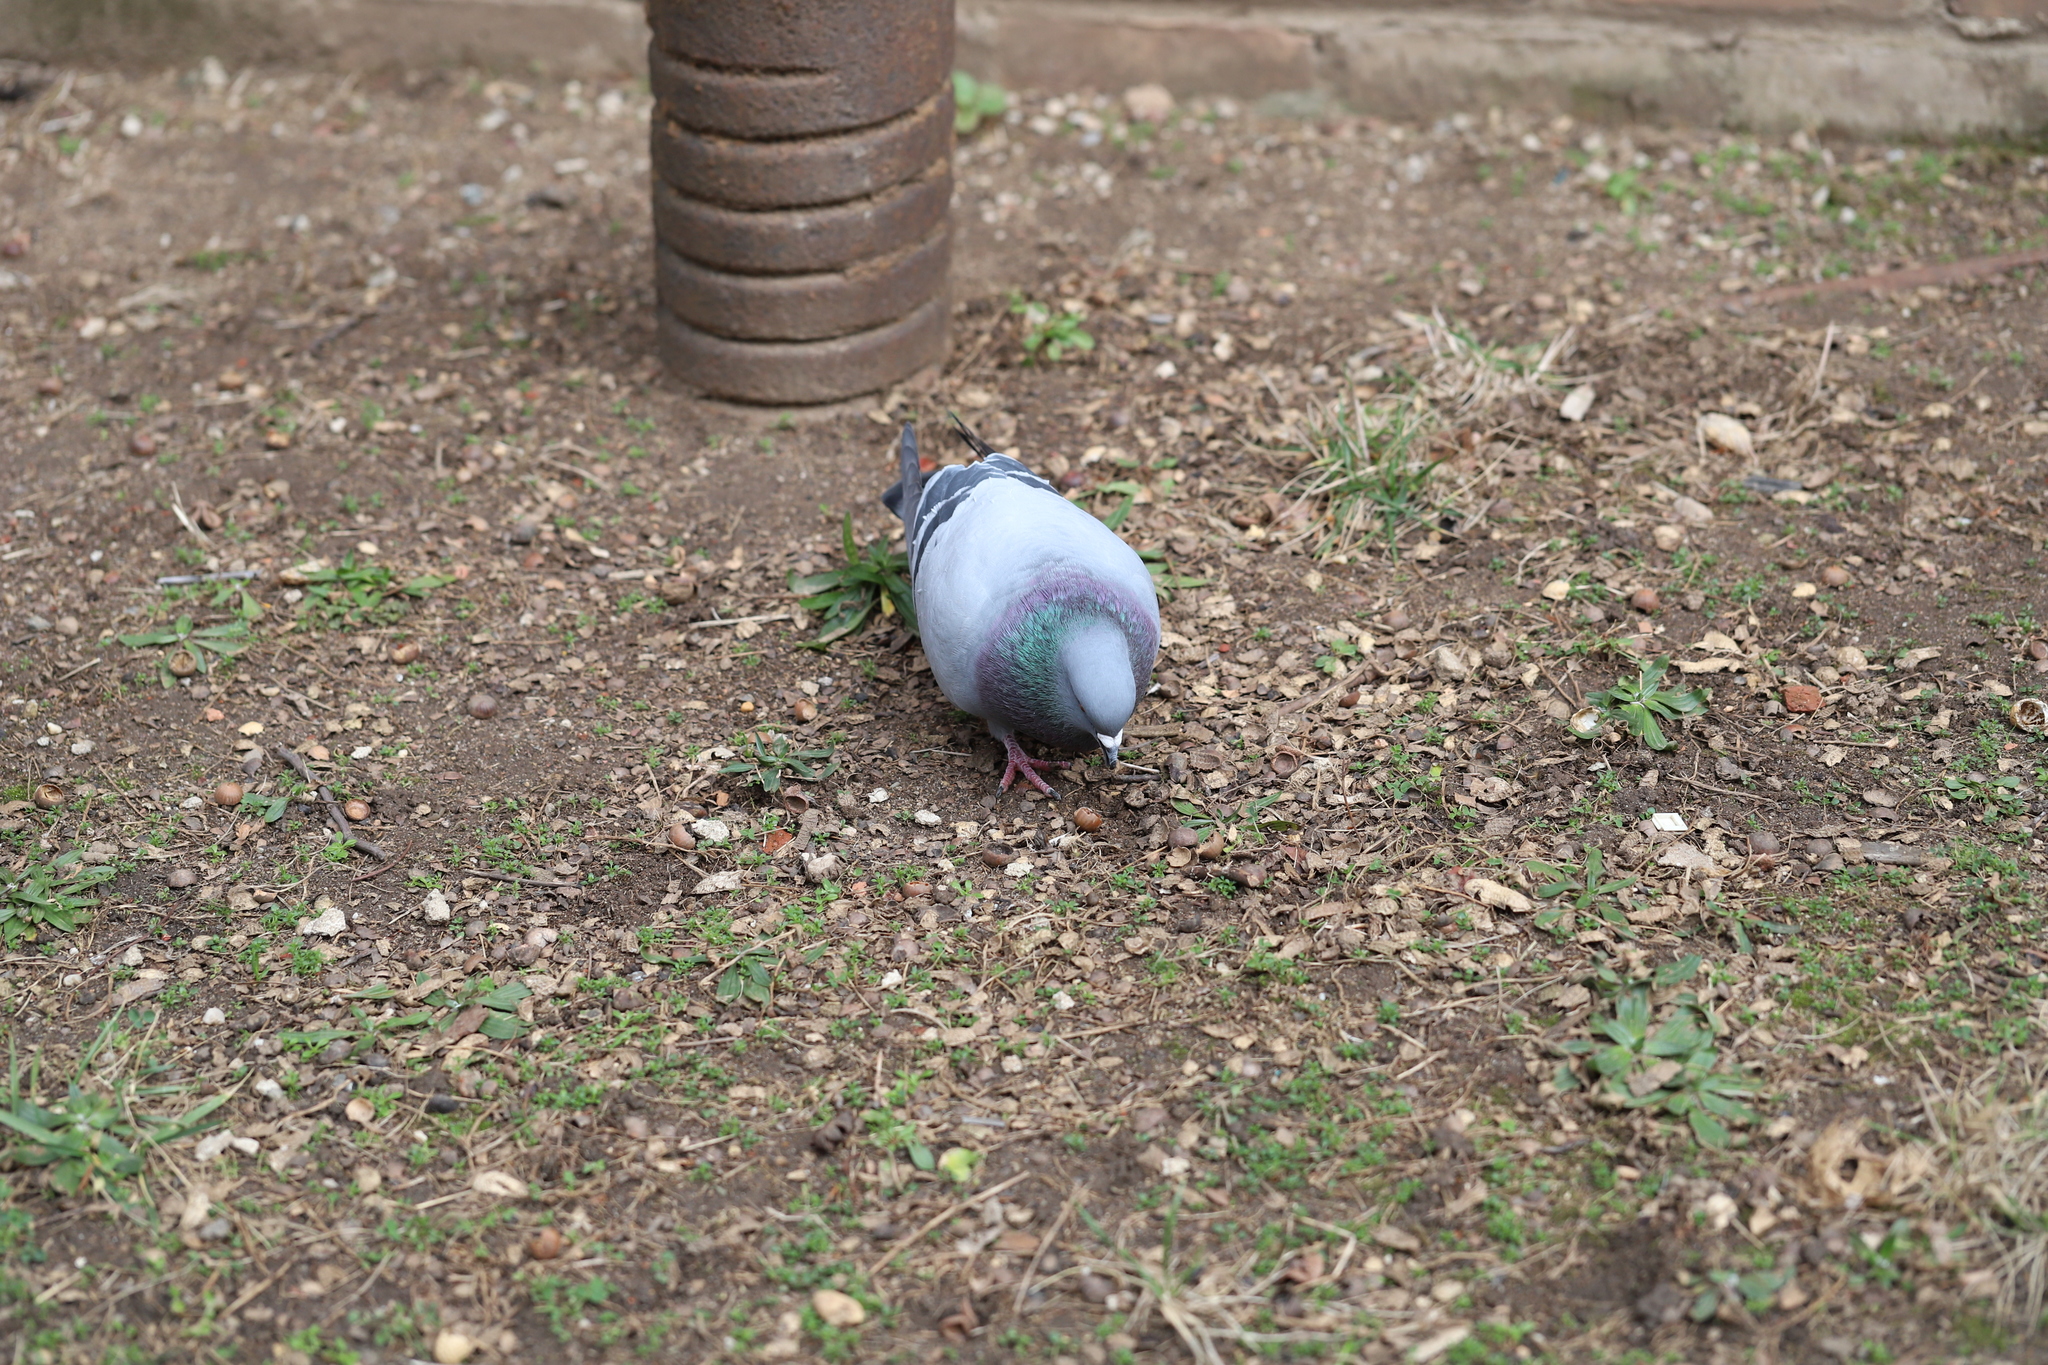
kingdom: Animalia
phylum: Chordata
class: Aves
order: Columbiformes
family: Columbidae
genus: Columba
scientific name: Columba livia
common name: Rock pigeon
